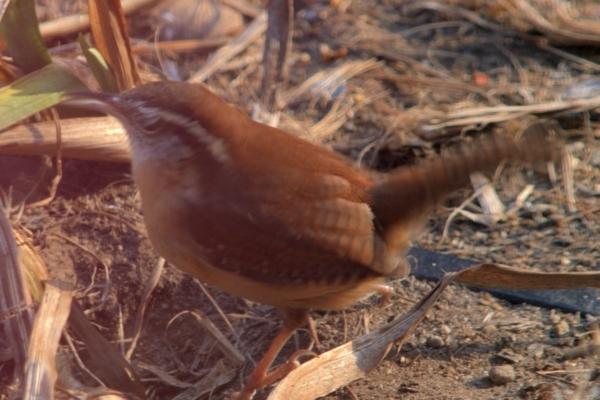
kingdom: Animalia
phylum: Chordata
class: Aves
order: Passeriformes
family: Troglodytidae
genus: Thryothorus
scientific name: Thryothorus ludovicianus
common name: Carolina wren
